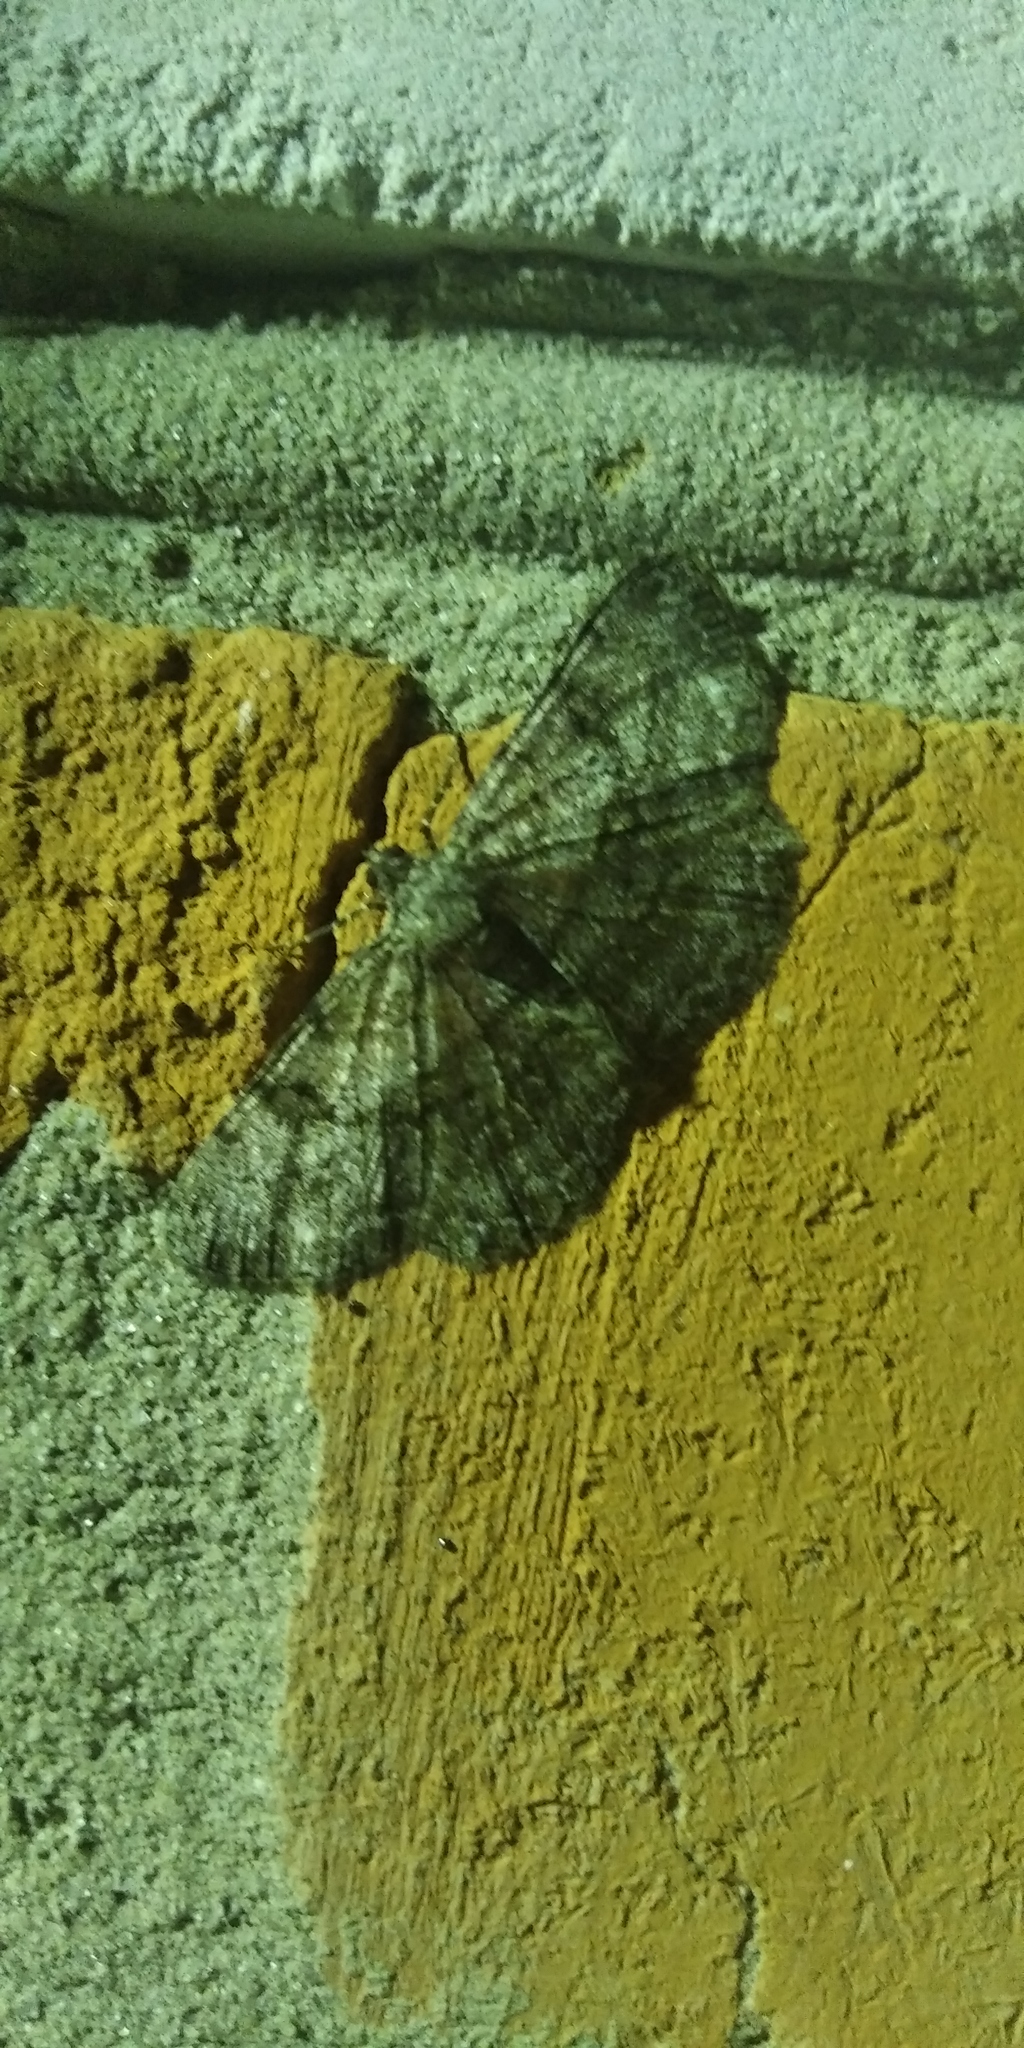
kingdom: Animalia
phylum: Arthropoda
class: Insecta
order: Lepidoptera
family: Geometridae
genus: Peribatodes
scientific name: Peribatodes rhomboidaria
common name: Willow beauty
